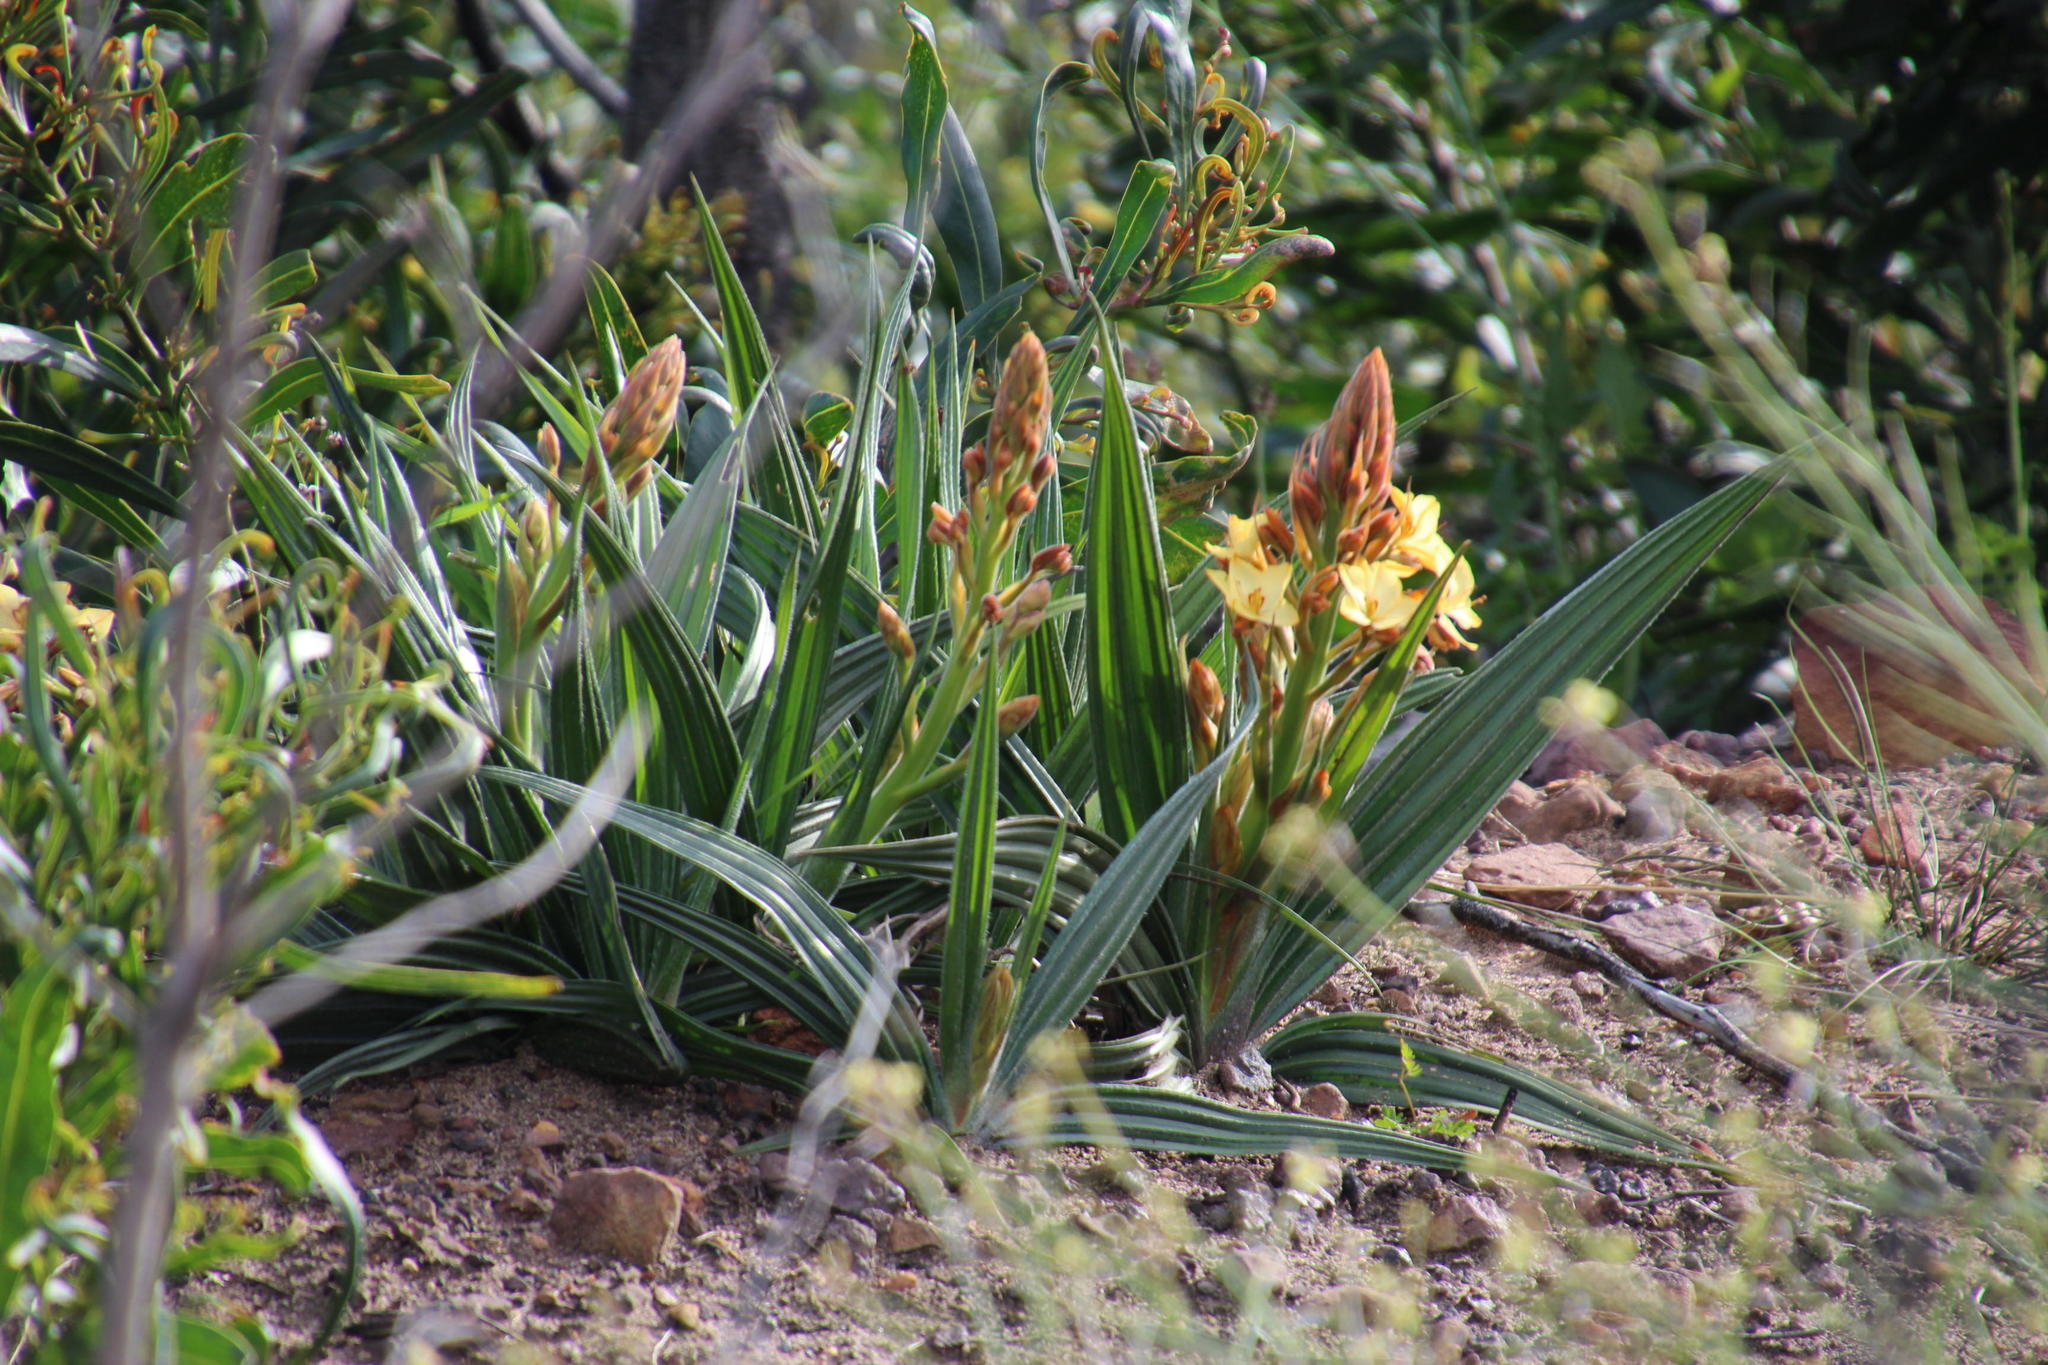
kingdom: Plantae
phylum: Tracheophyta
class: Liliopsida
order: Commelinales
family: Haemodoraceae
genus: Wachendorfia
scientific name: Wachendorfia paniculata
